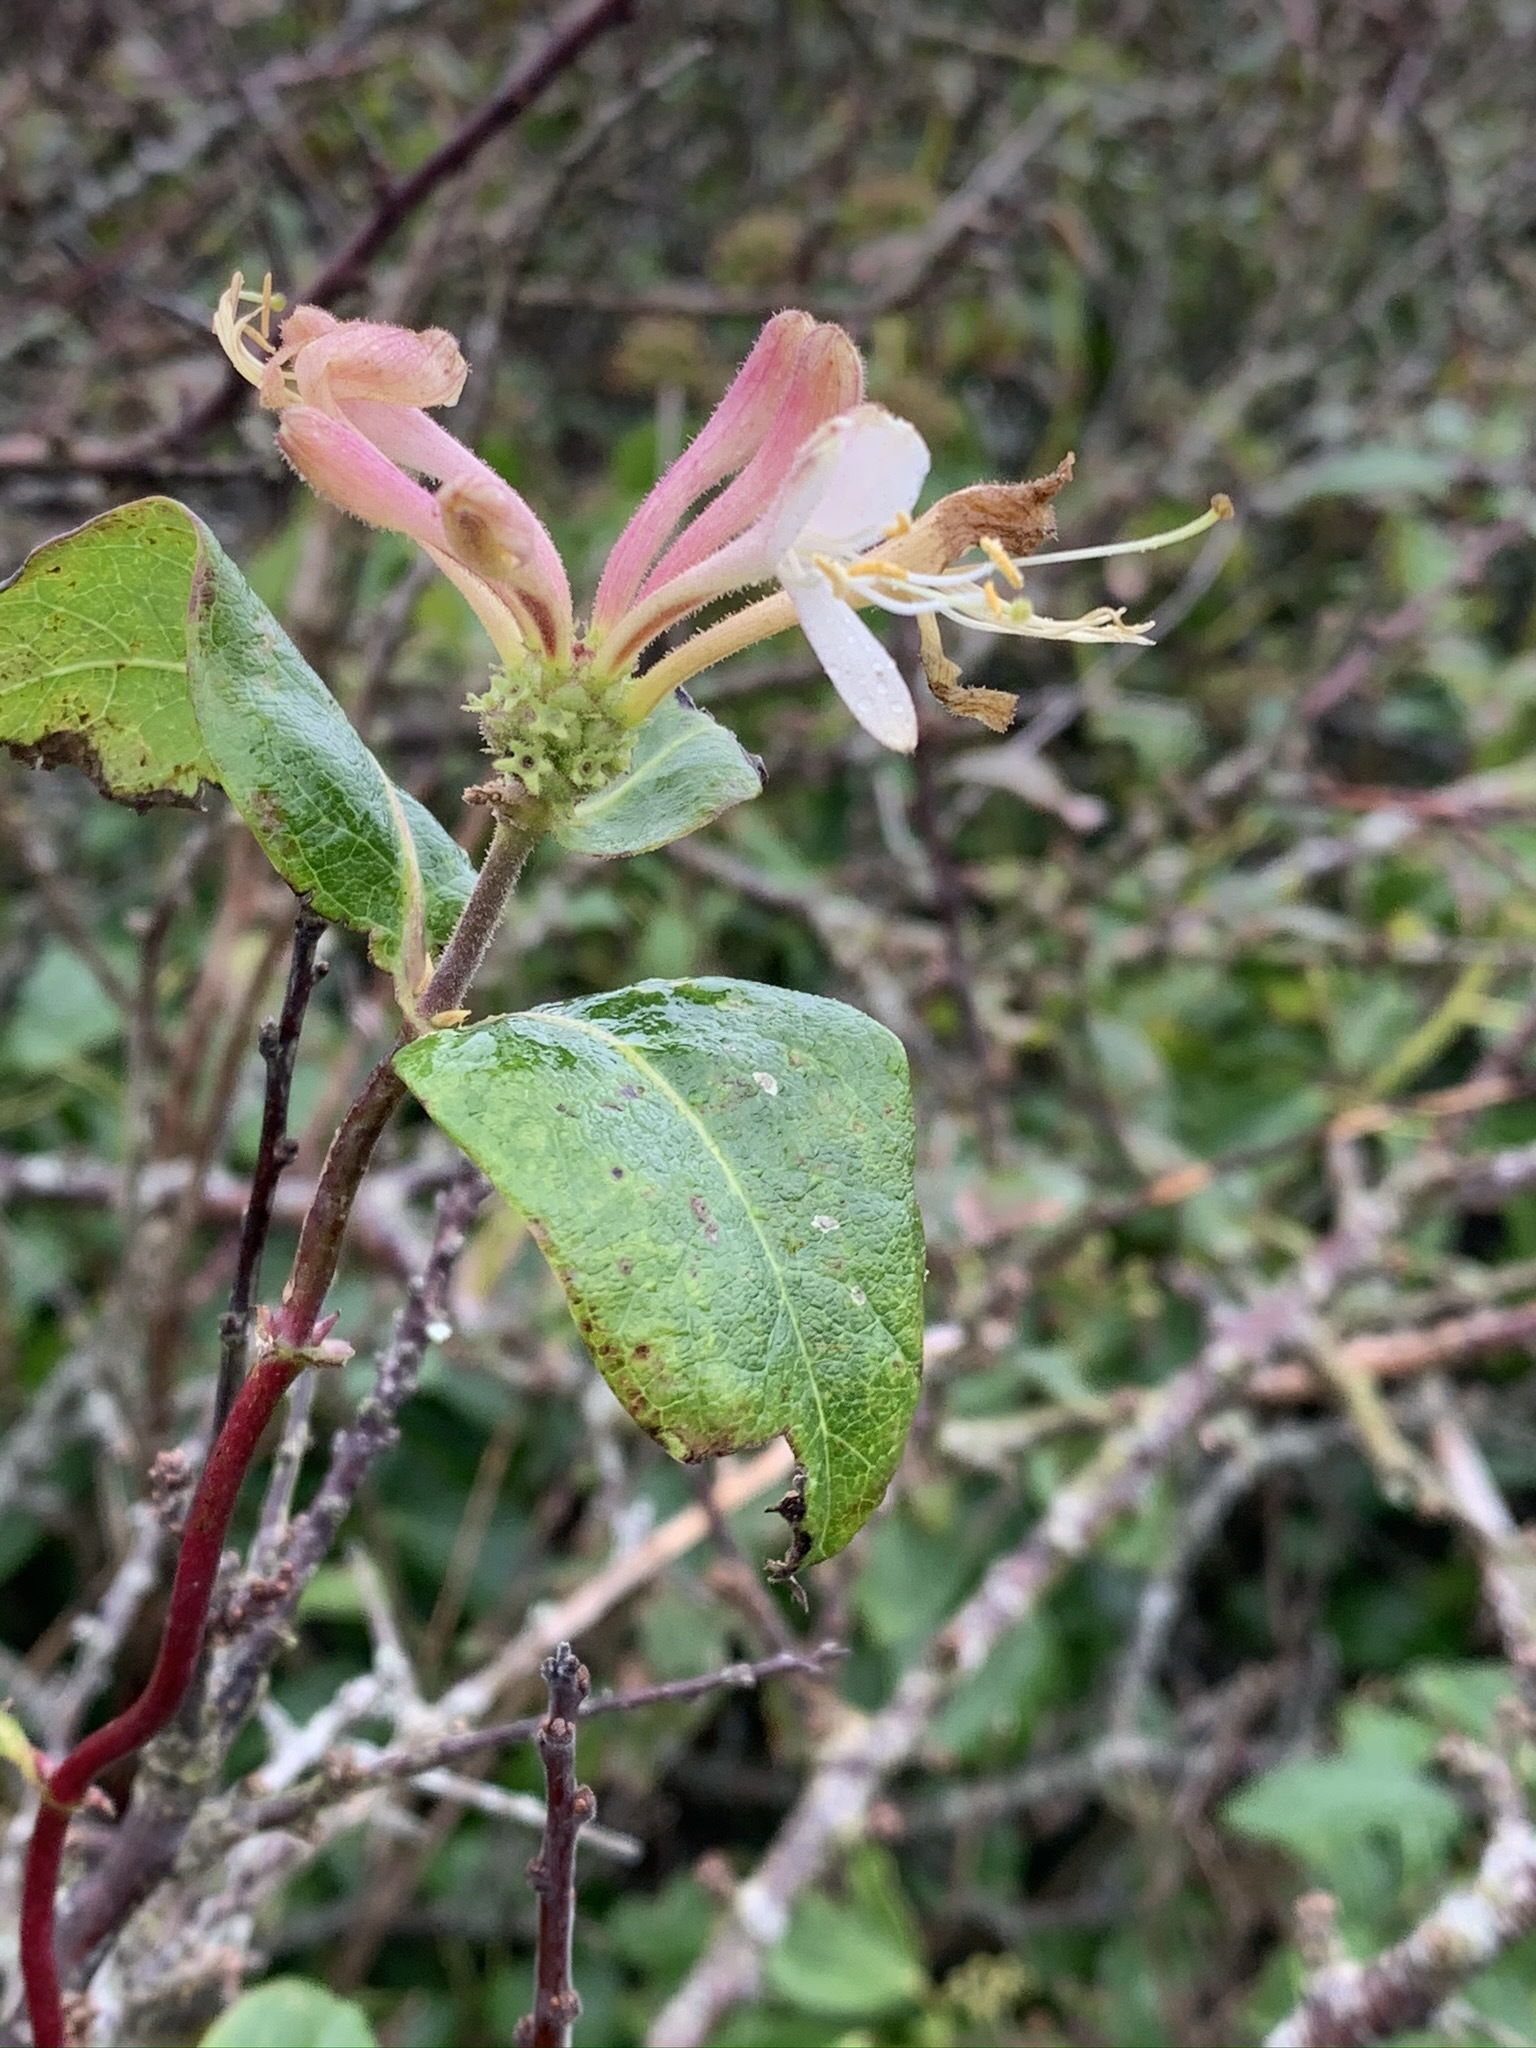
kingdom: Plantae
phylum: Tracheophyta
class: Magnoliopsida
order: Dipsacales
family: Caprifoliaceae
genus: Lonicera
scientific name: Lonicera periclymenum
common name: European honeysuckle
